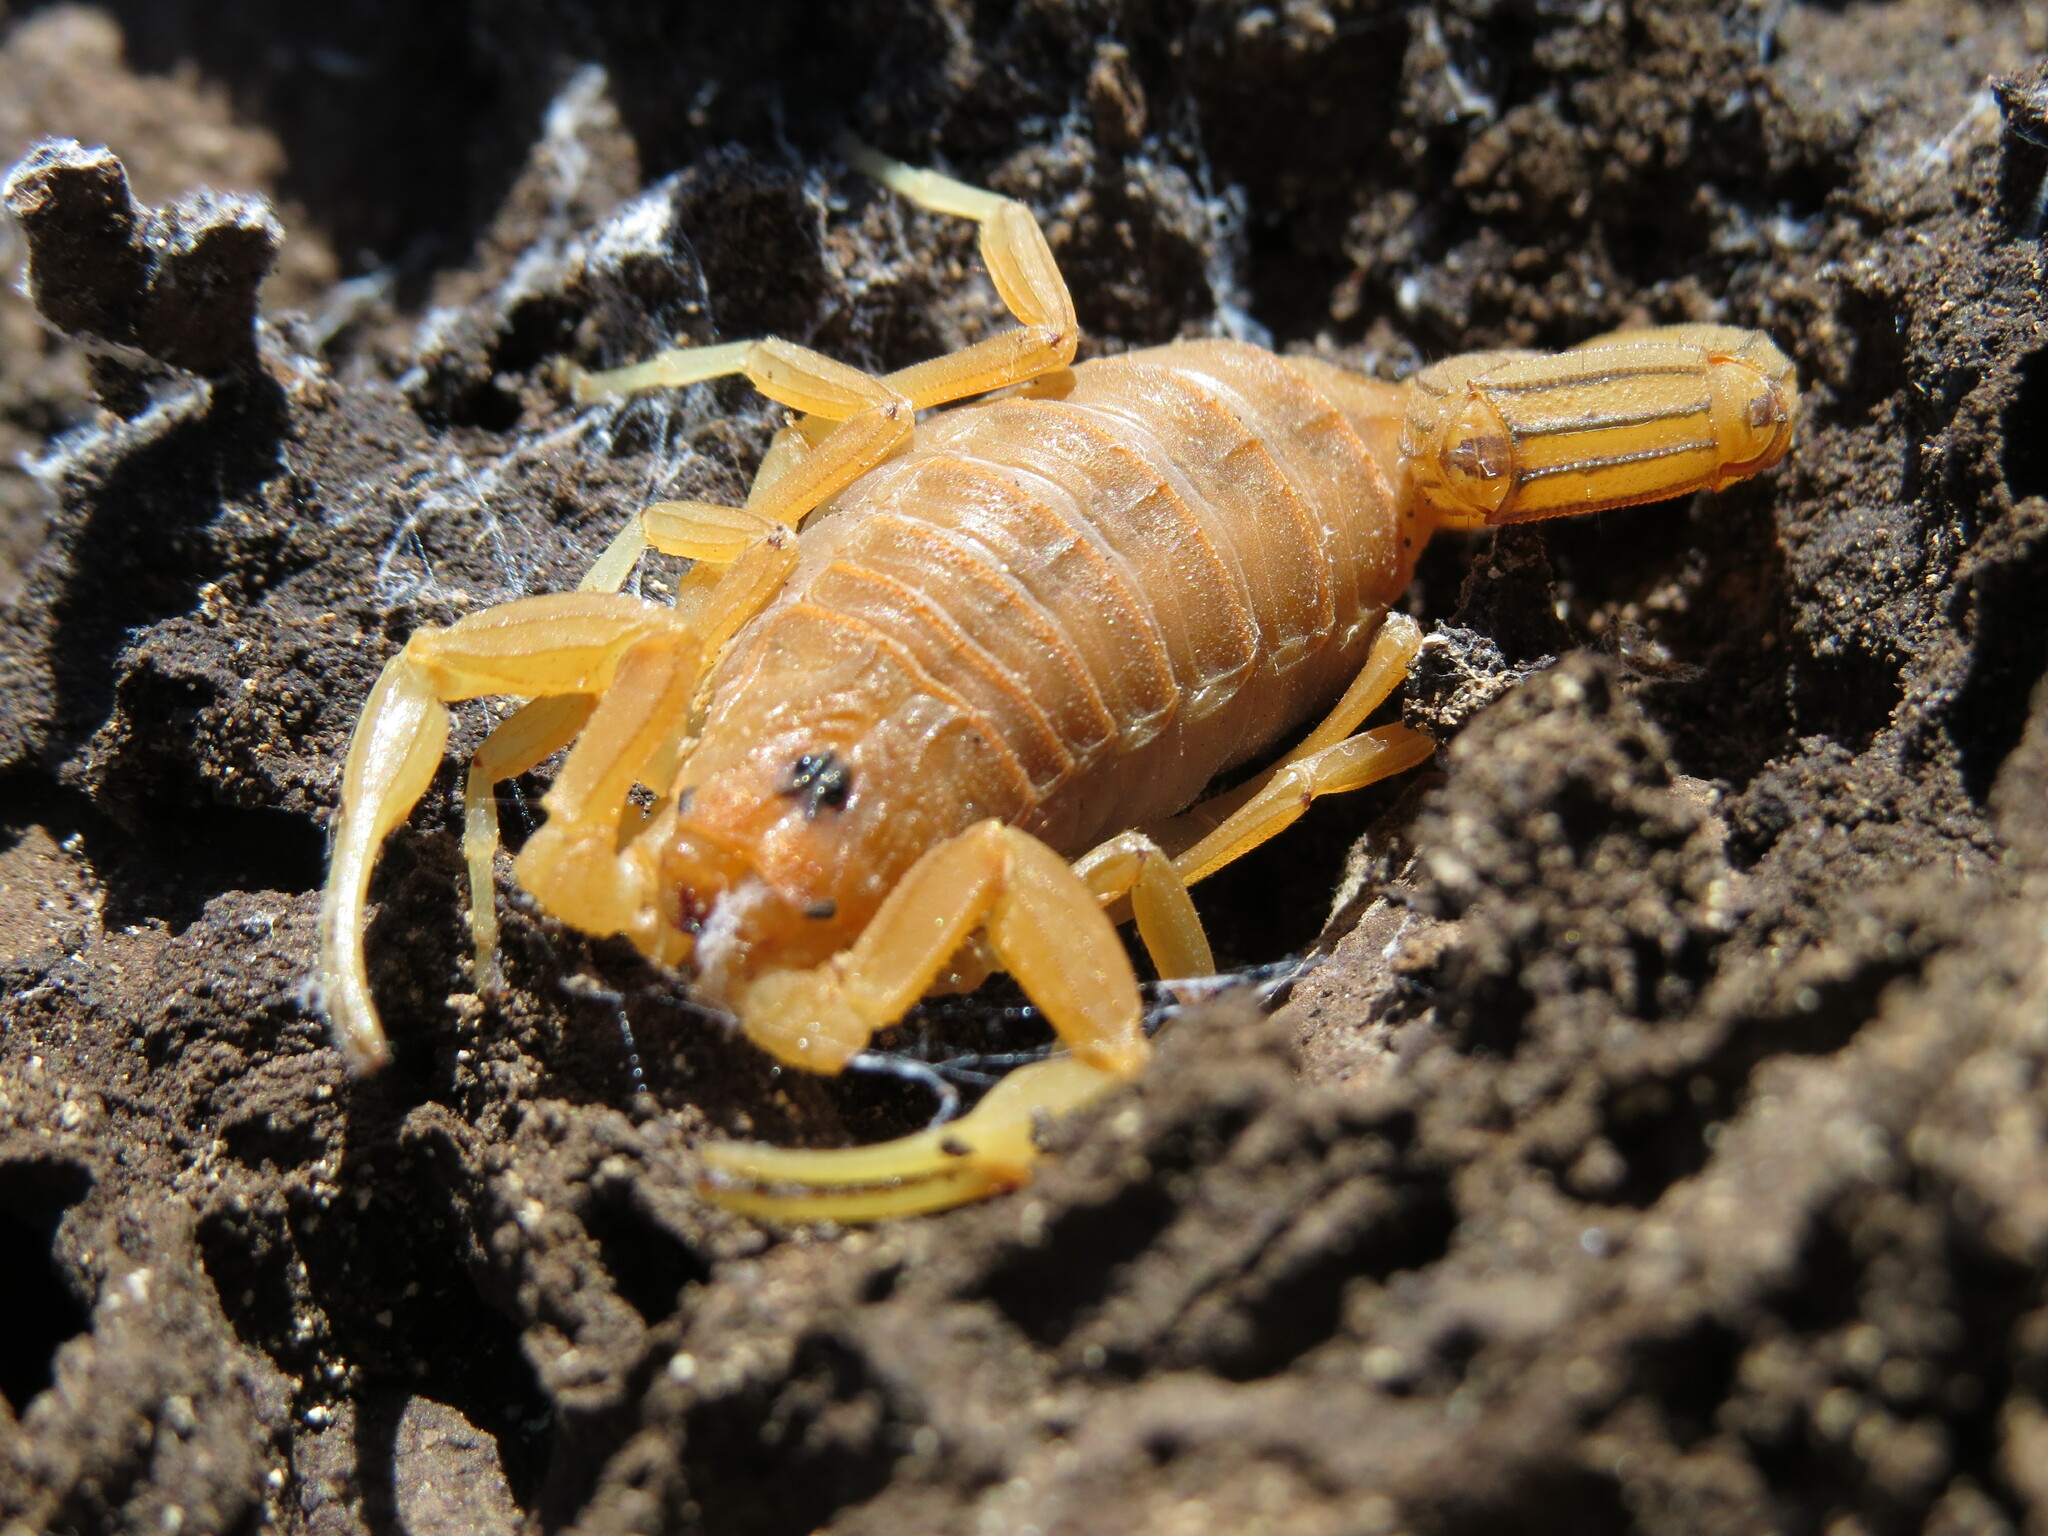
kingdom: Animalia
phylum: Arthropoda
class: Arachnida
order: Scorpiones
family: Buthidae
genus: Jaguajir
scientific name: Jaguajir rochae
